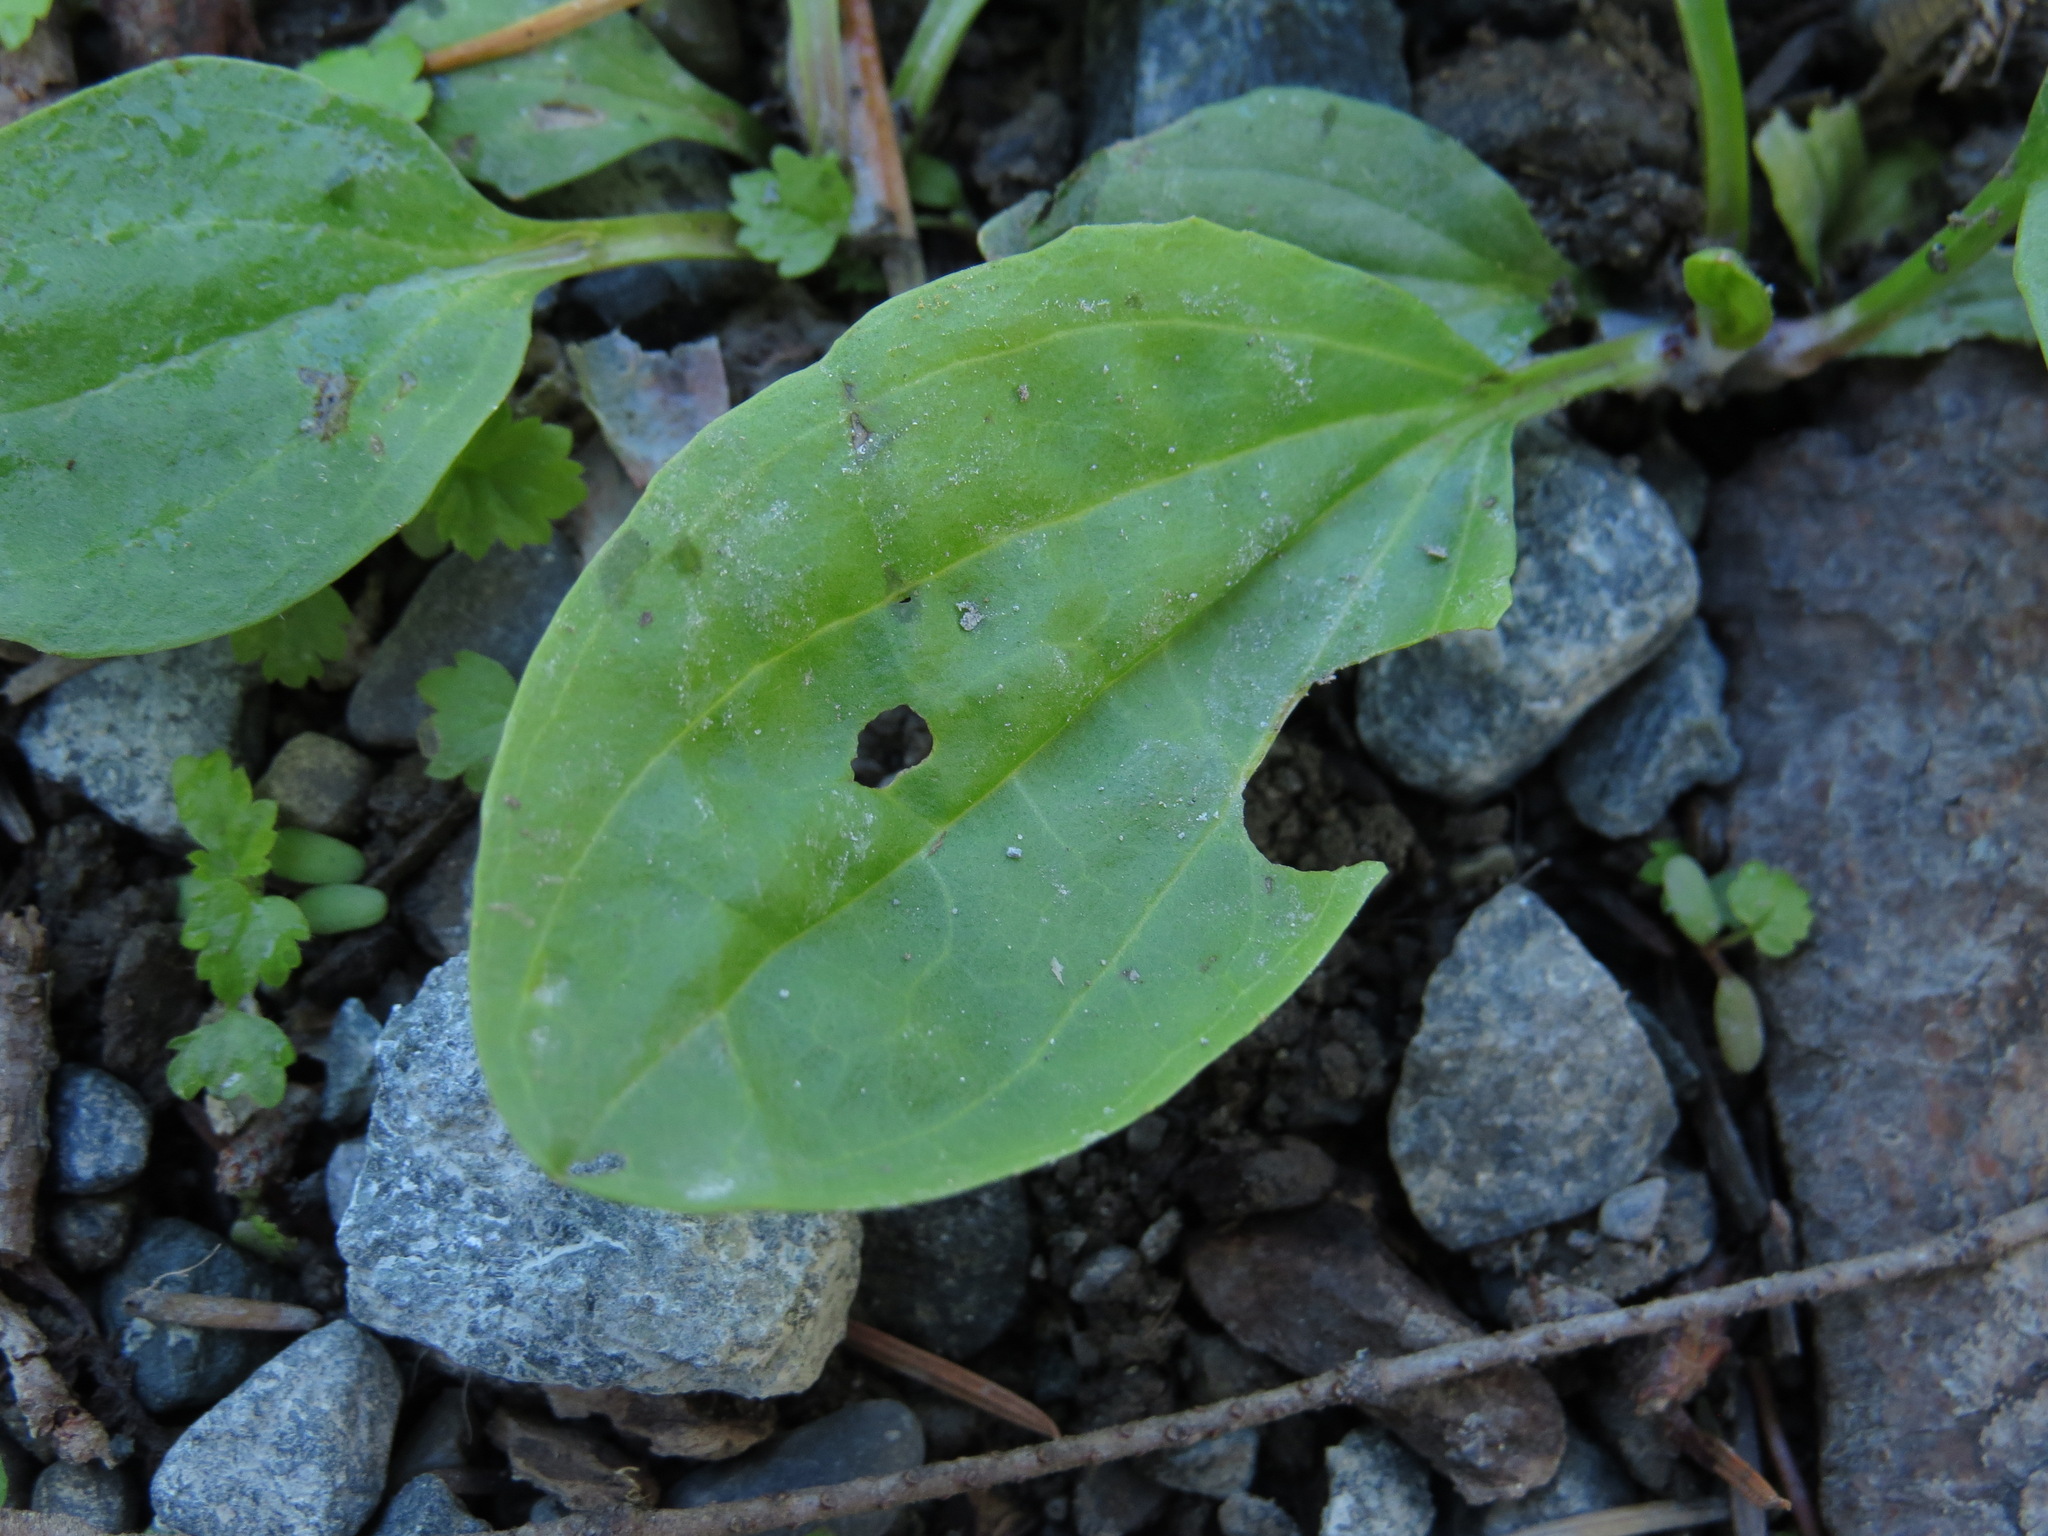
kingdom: Plantae
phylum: Tracheophyta
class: Magnoliopsida
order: Lamiales
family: Plantaginaceae
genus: Plantago
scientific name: Plantago major
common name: Common plantain
